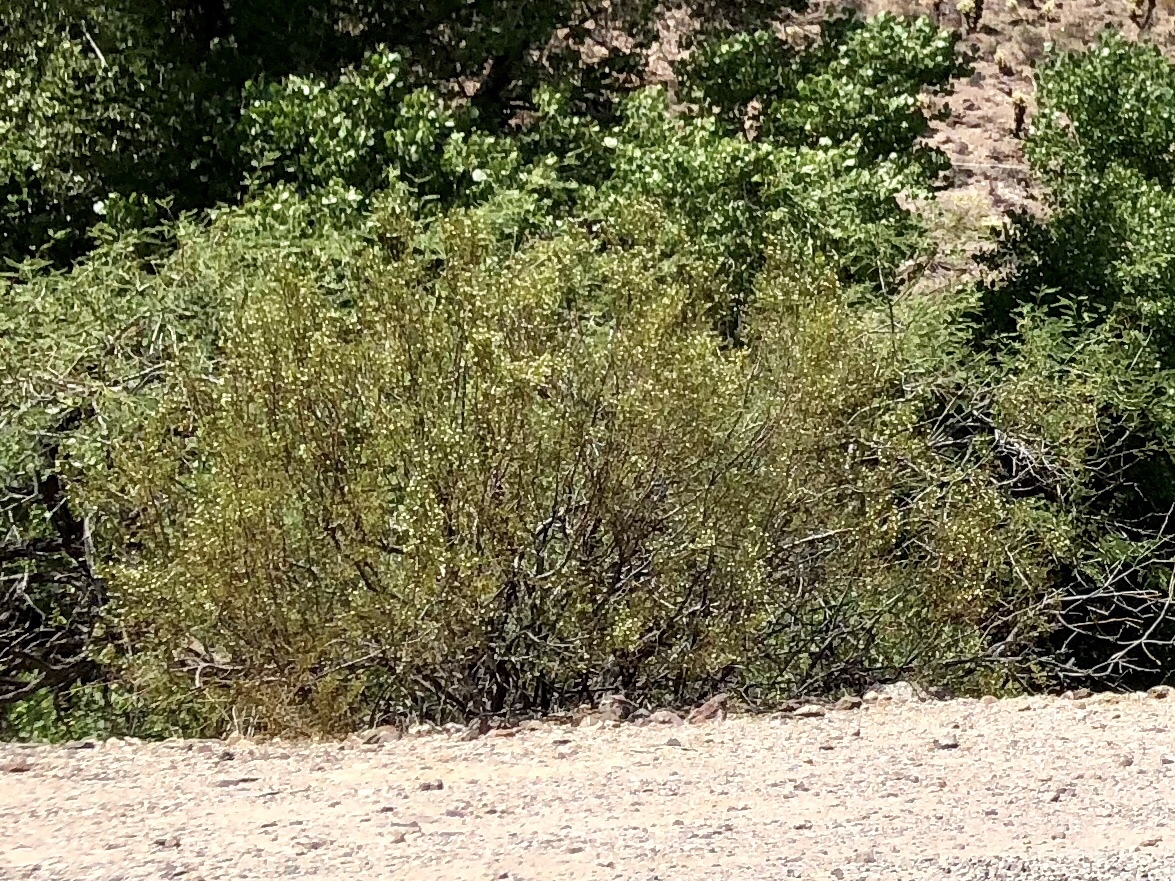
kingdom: Plantae
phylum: Tracheophyta
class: Magnoliopsida
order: Zygophyllales
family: Zygophyllaceae
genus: Larrea
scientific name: Larrea tridentata
